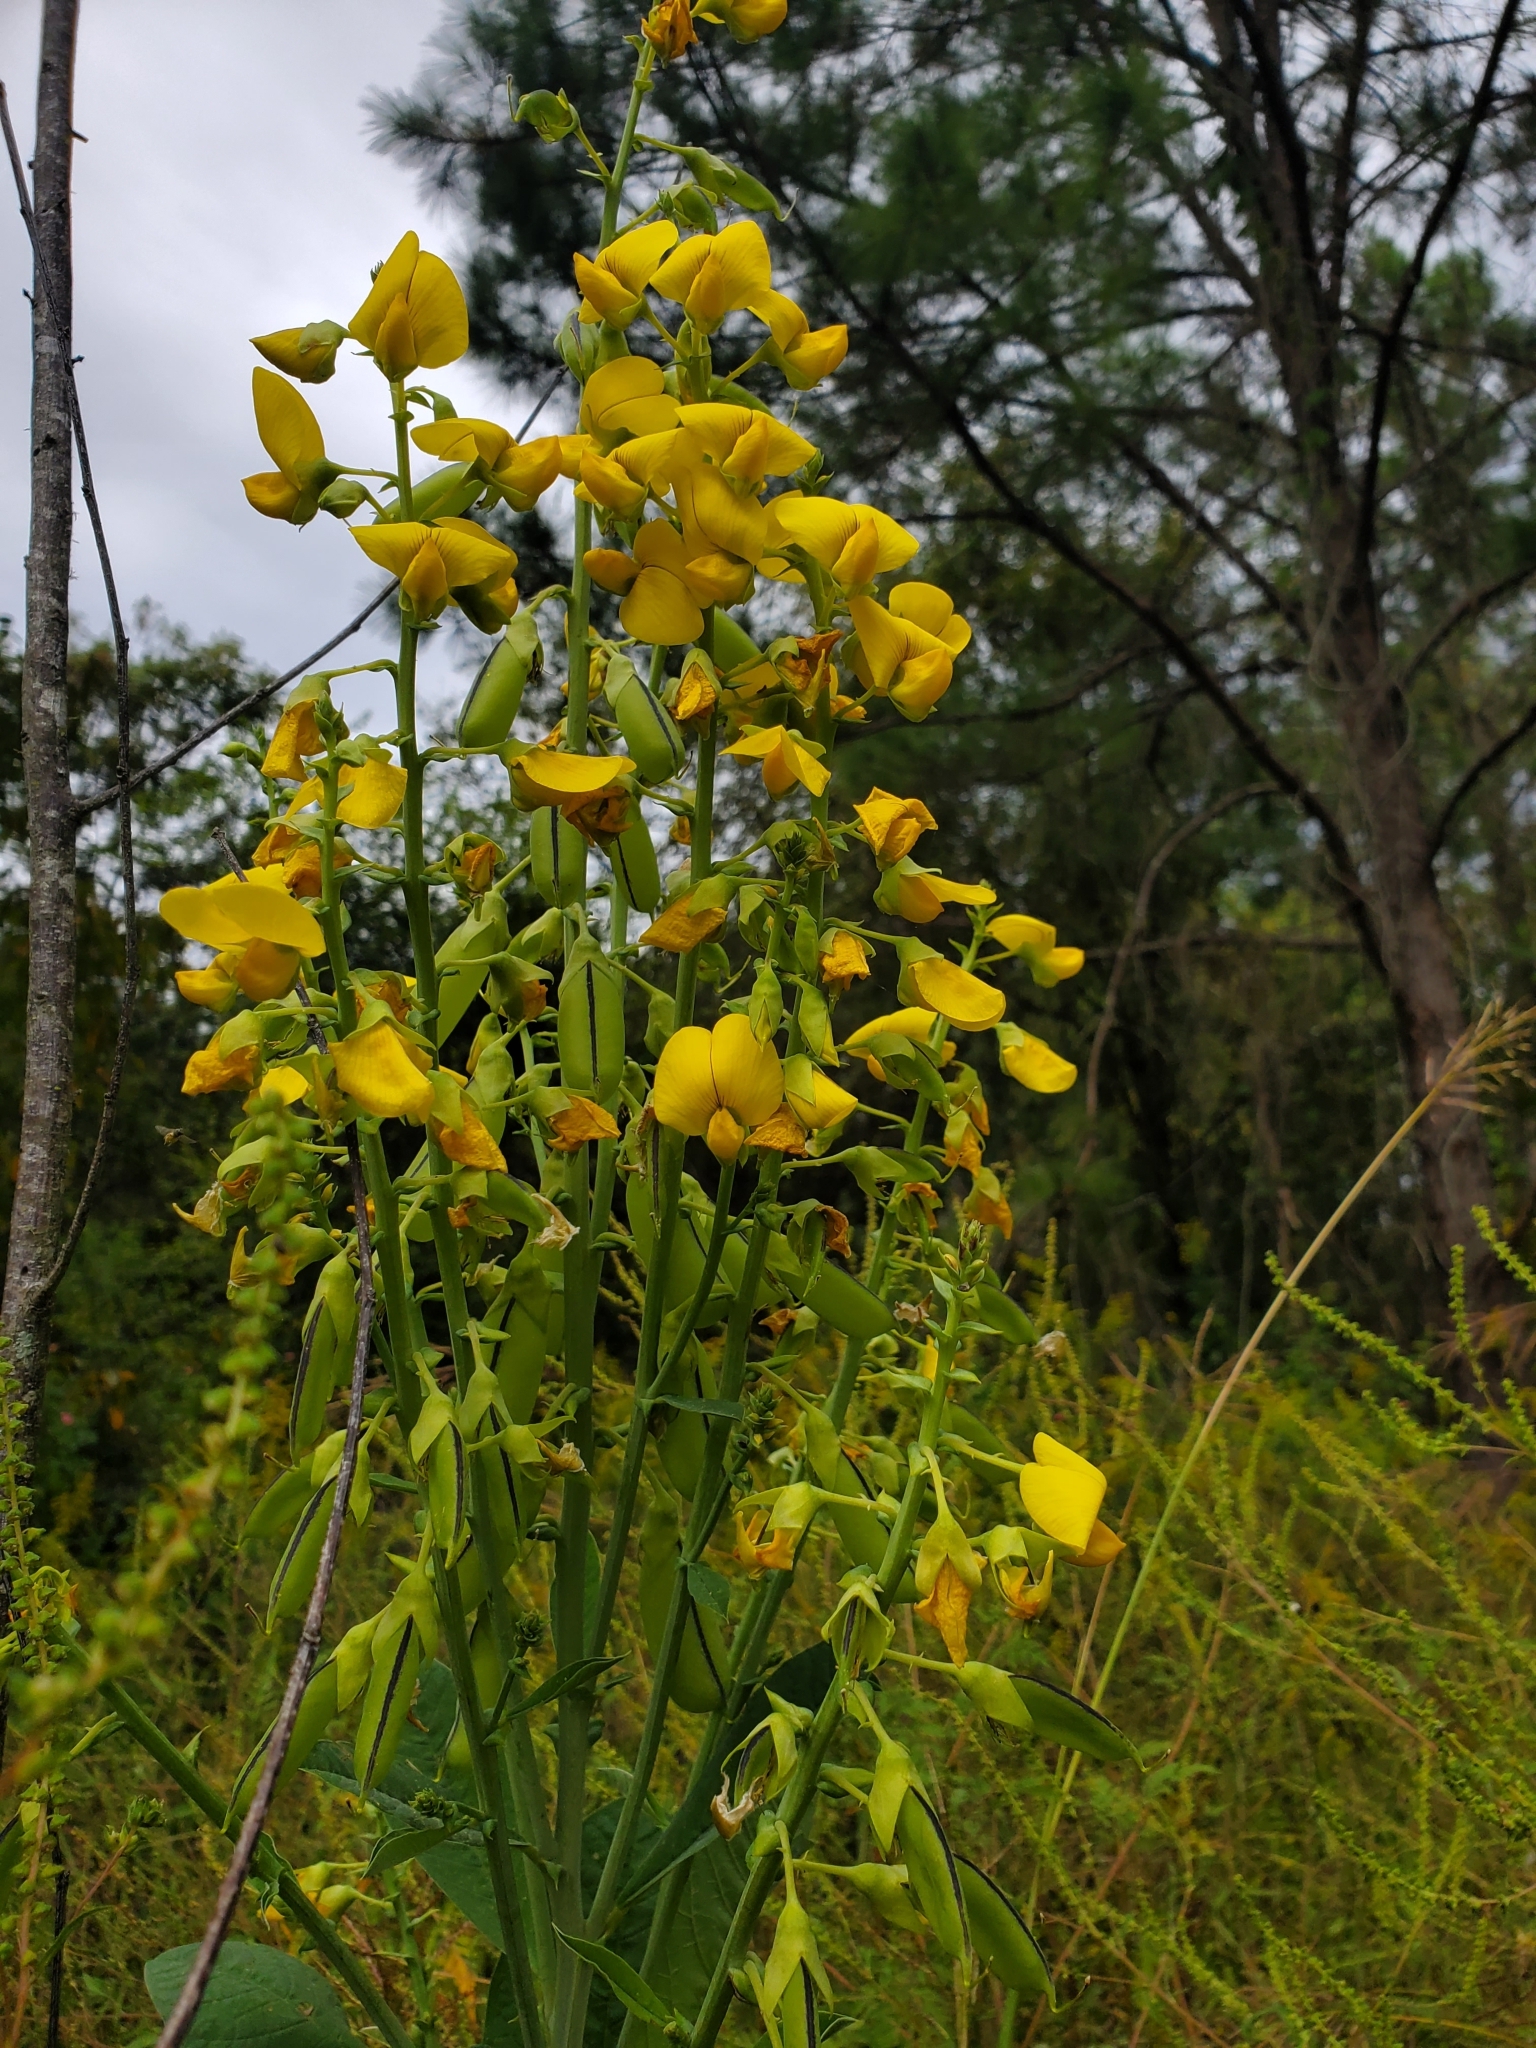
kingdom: Plantae
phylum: Tracheophyta
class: Magnoliopsida
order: Fabales
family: Fabaceae
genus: Crotalaria
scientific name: Crotalaria spectabilis
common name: Showy rattlebox
